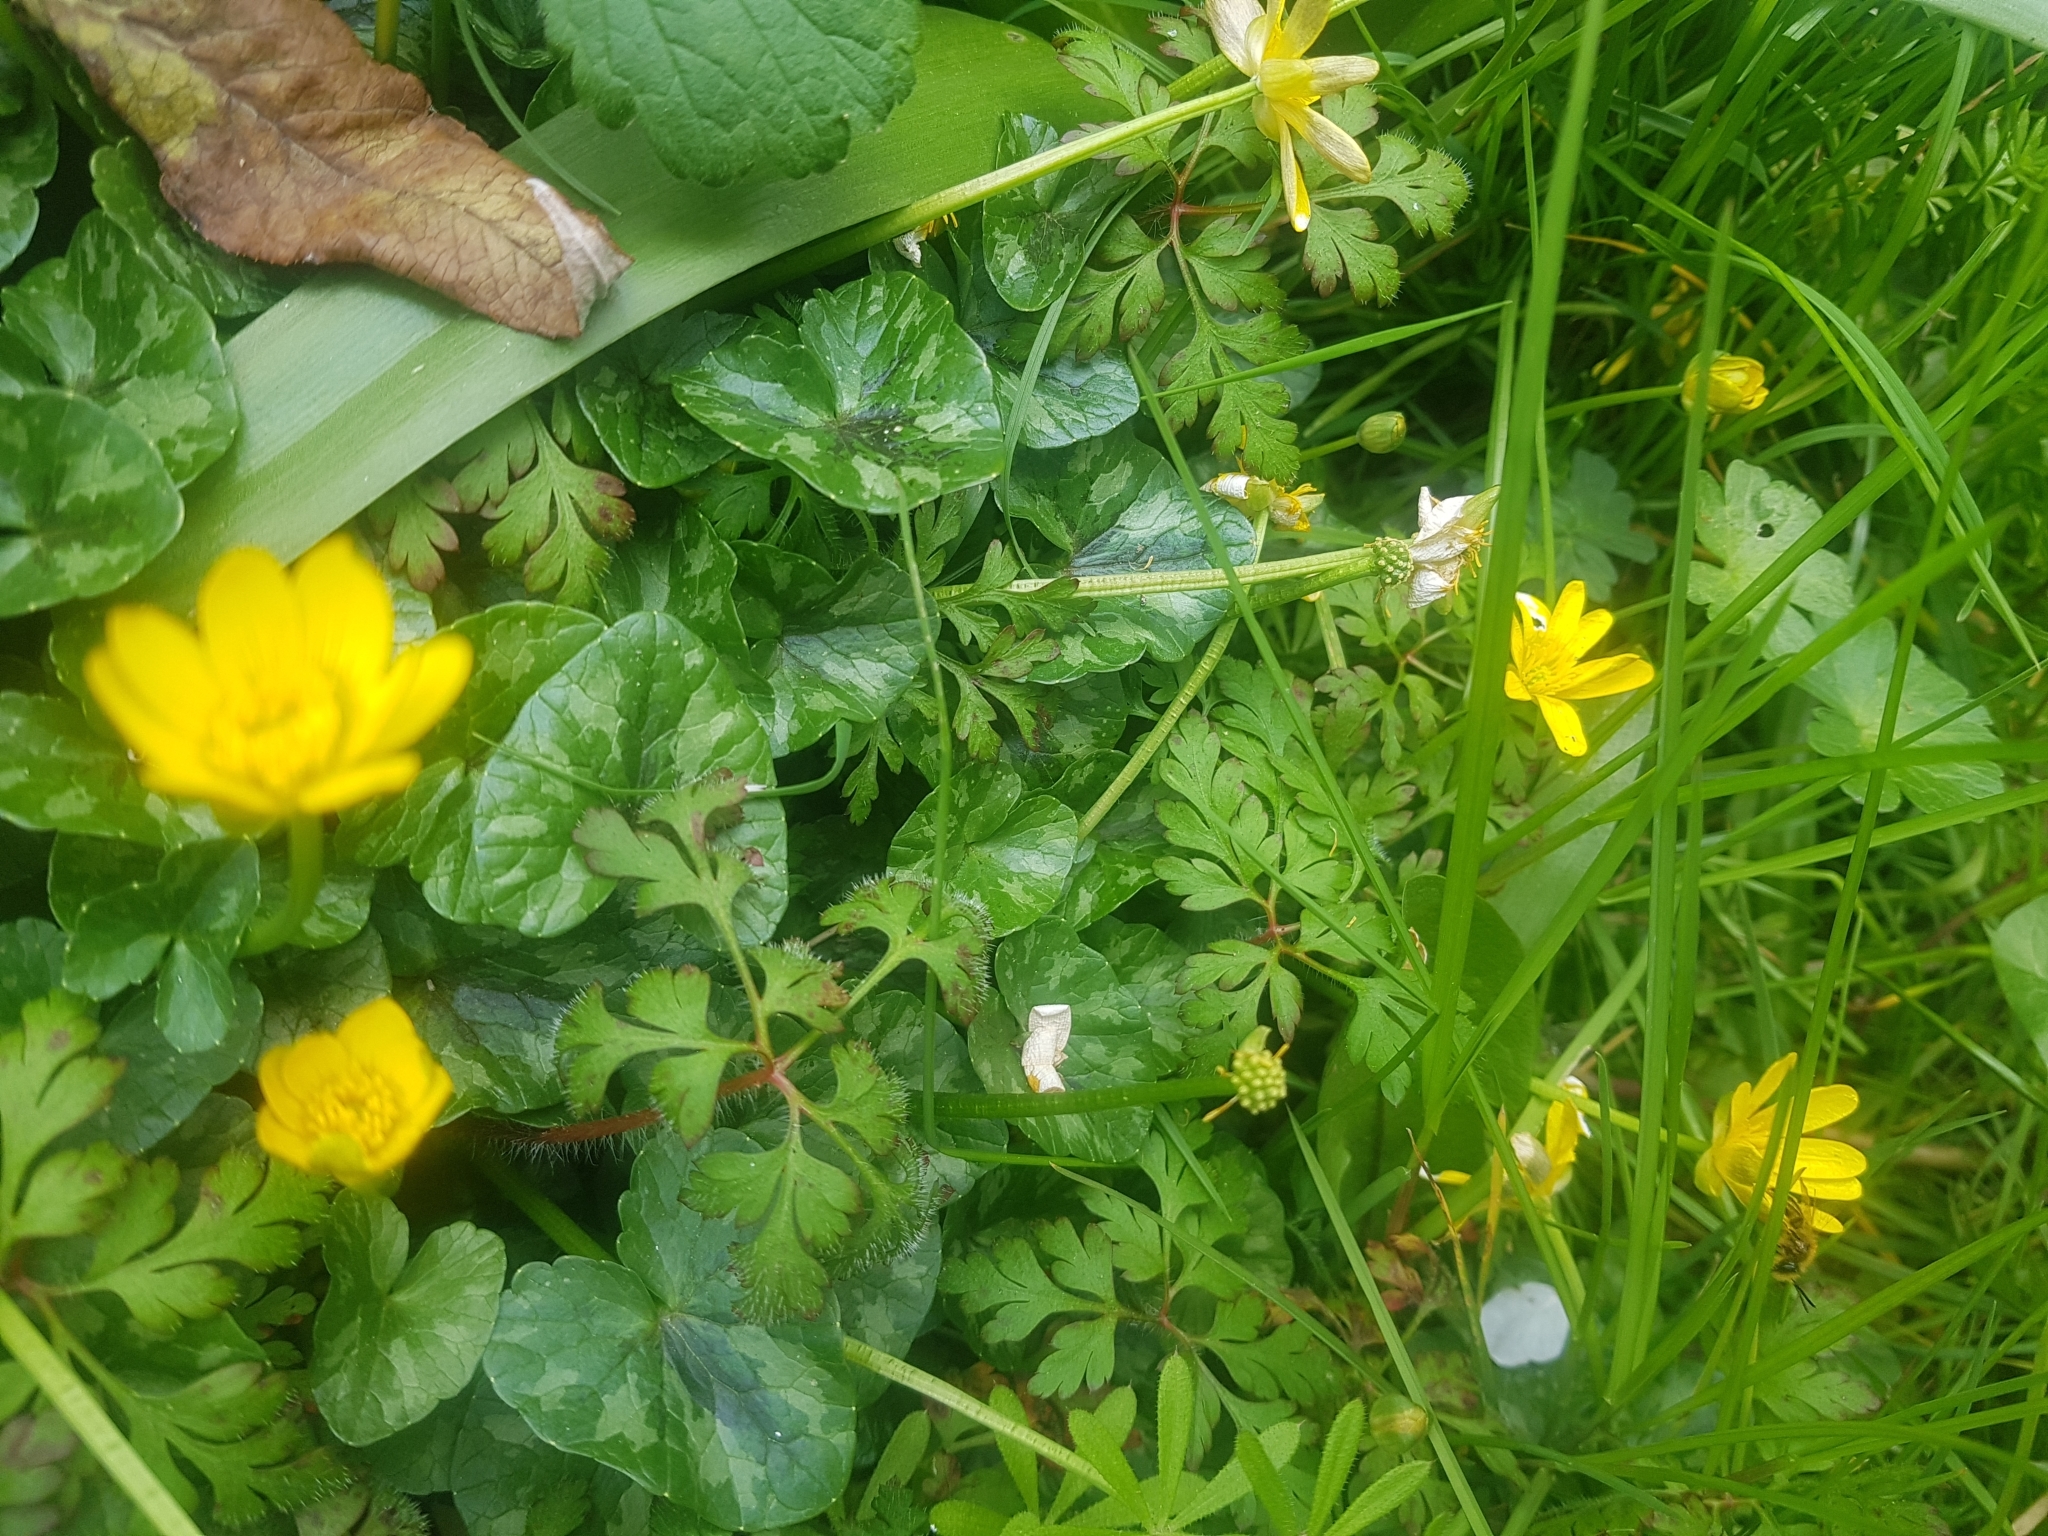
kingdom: Plantae
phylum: Tracheophyta
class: Magnoliopsida
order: Ranunculales
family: Ranunculaceae
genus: Ficaria
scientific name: Ficaria verna
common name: Lesser celandine
